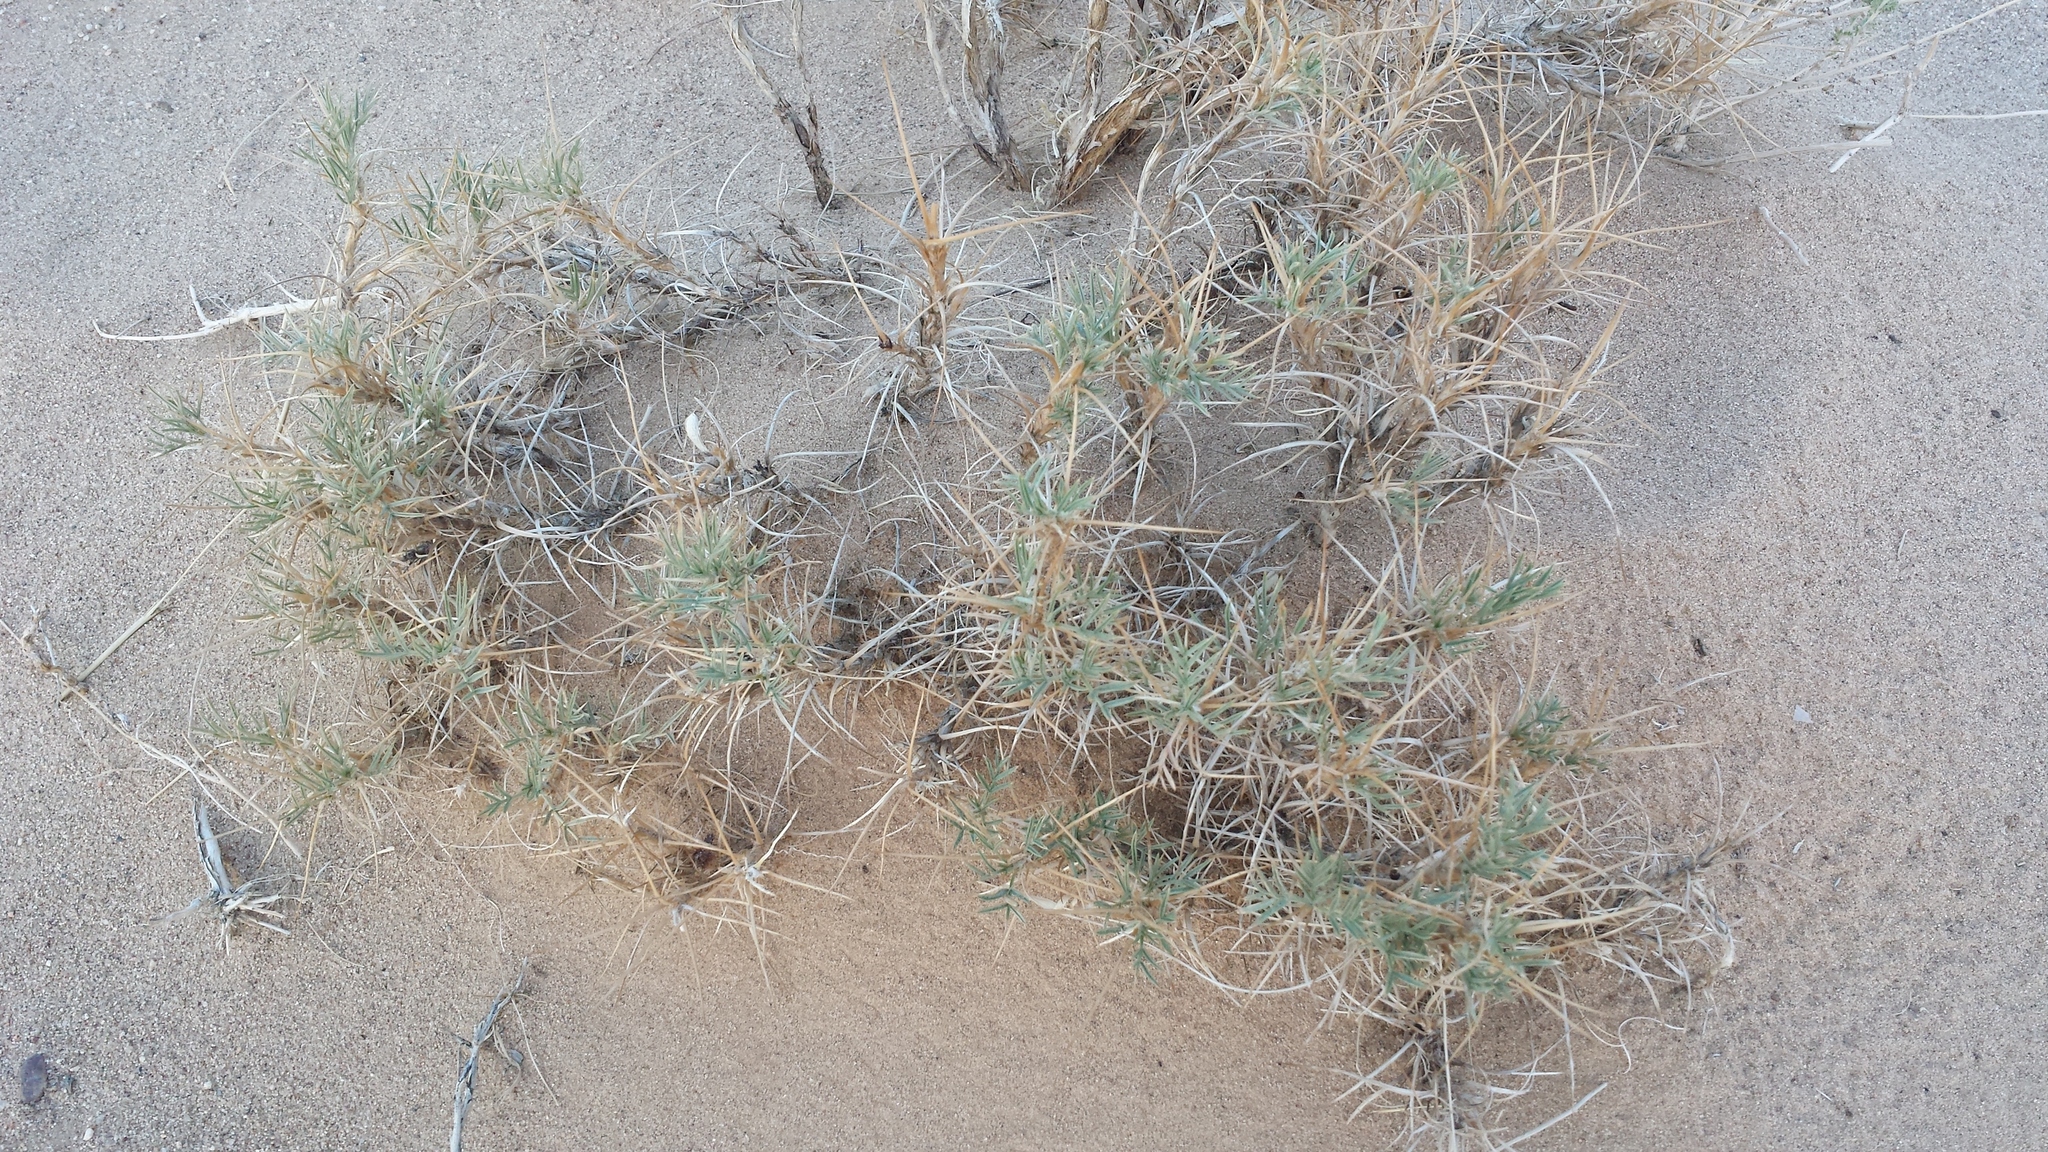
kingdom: Plantae
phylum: Tracheophyta
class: Magnoliopsida
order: Fabales
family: Fabaceae
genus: Oxytropis
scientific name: Oxytropis aciphylla
